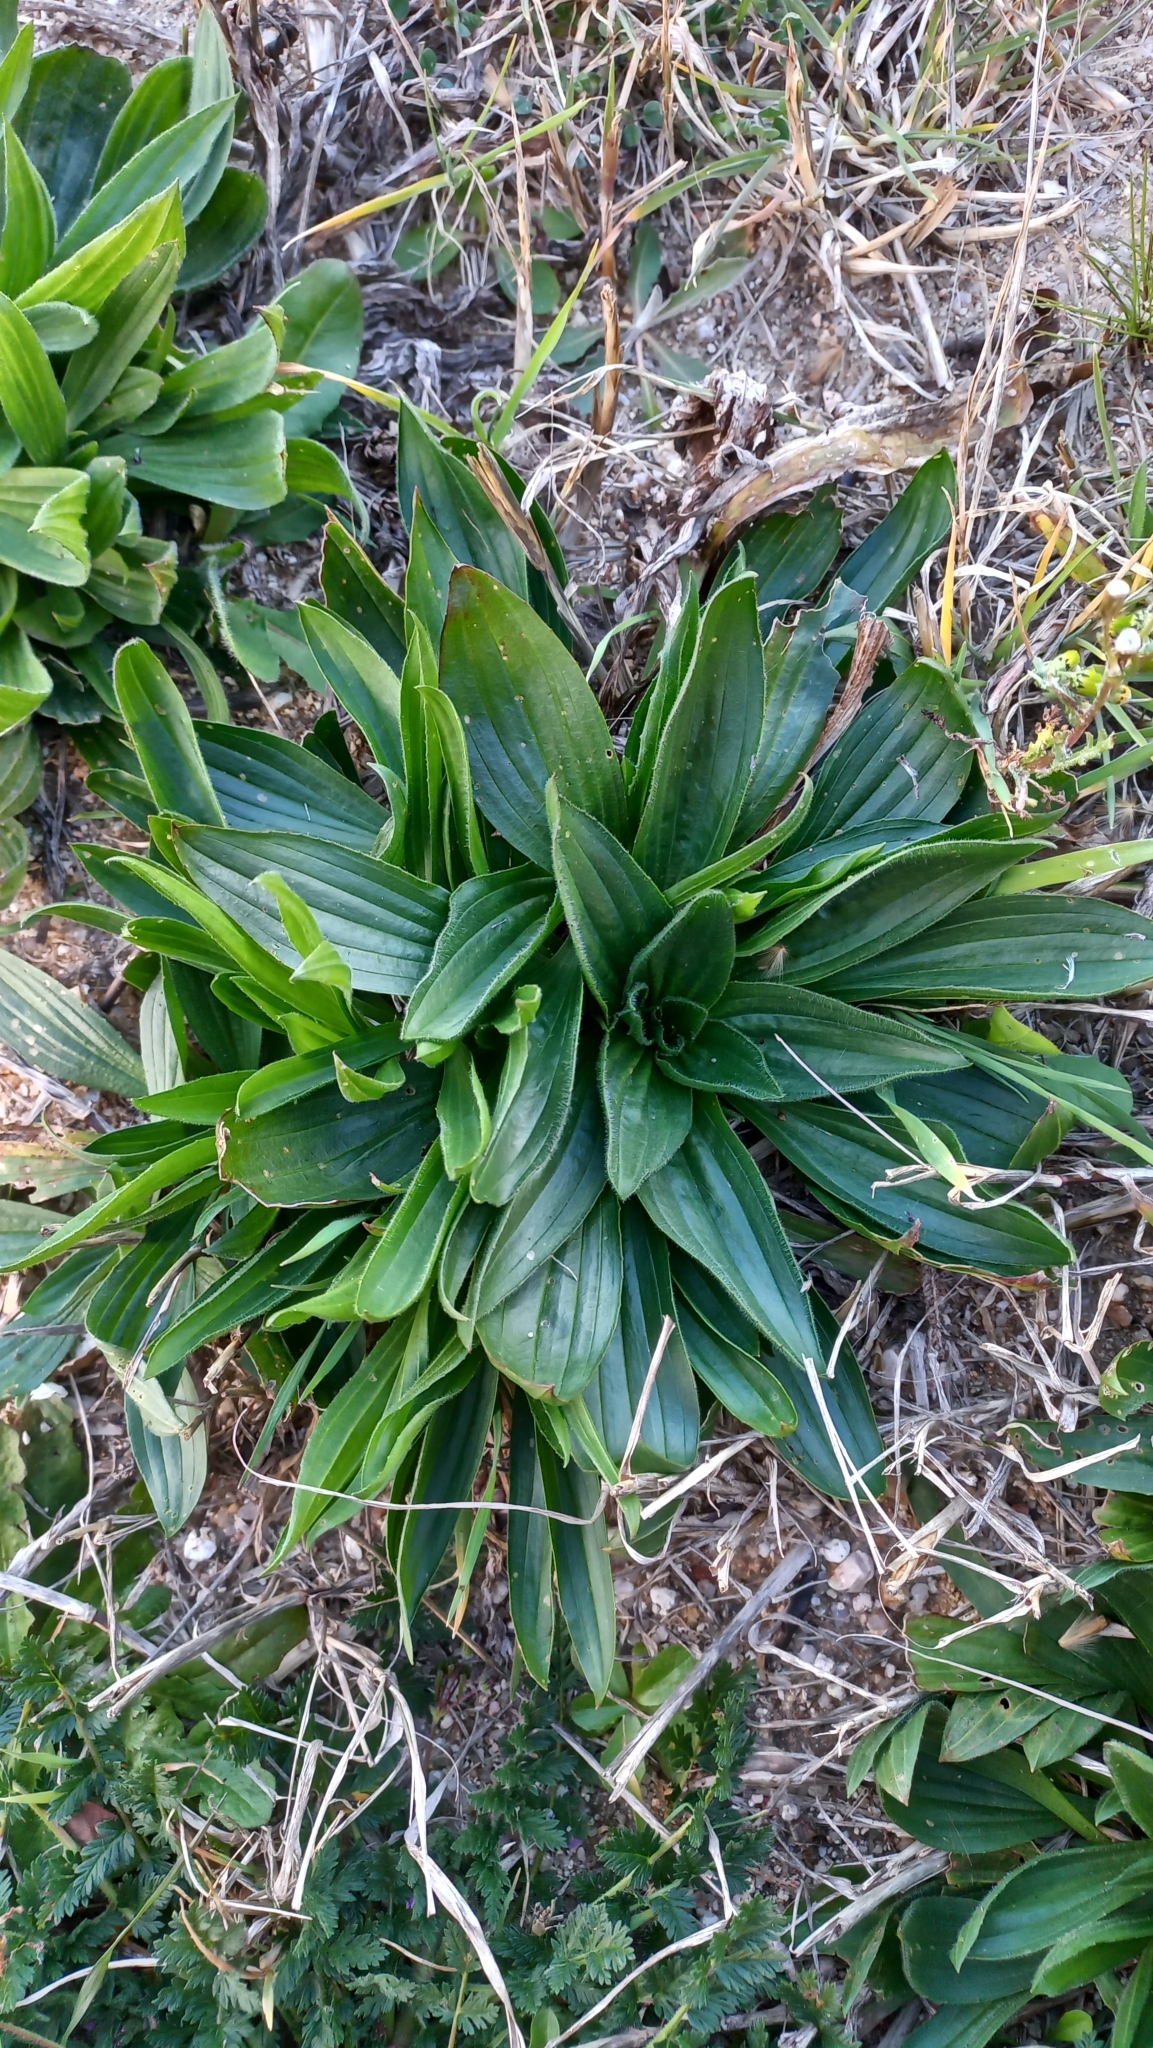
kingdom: Plantae
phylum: Tracheophyta
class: Magnoliopsida
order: Lamiales
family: Plantaginaceae
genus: Plantago
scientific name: Plantago lanceolata
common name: Ribwort plantain
